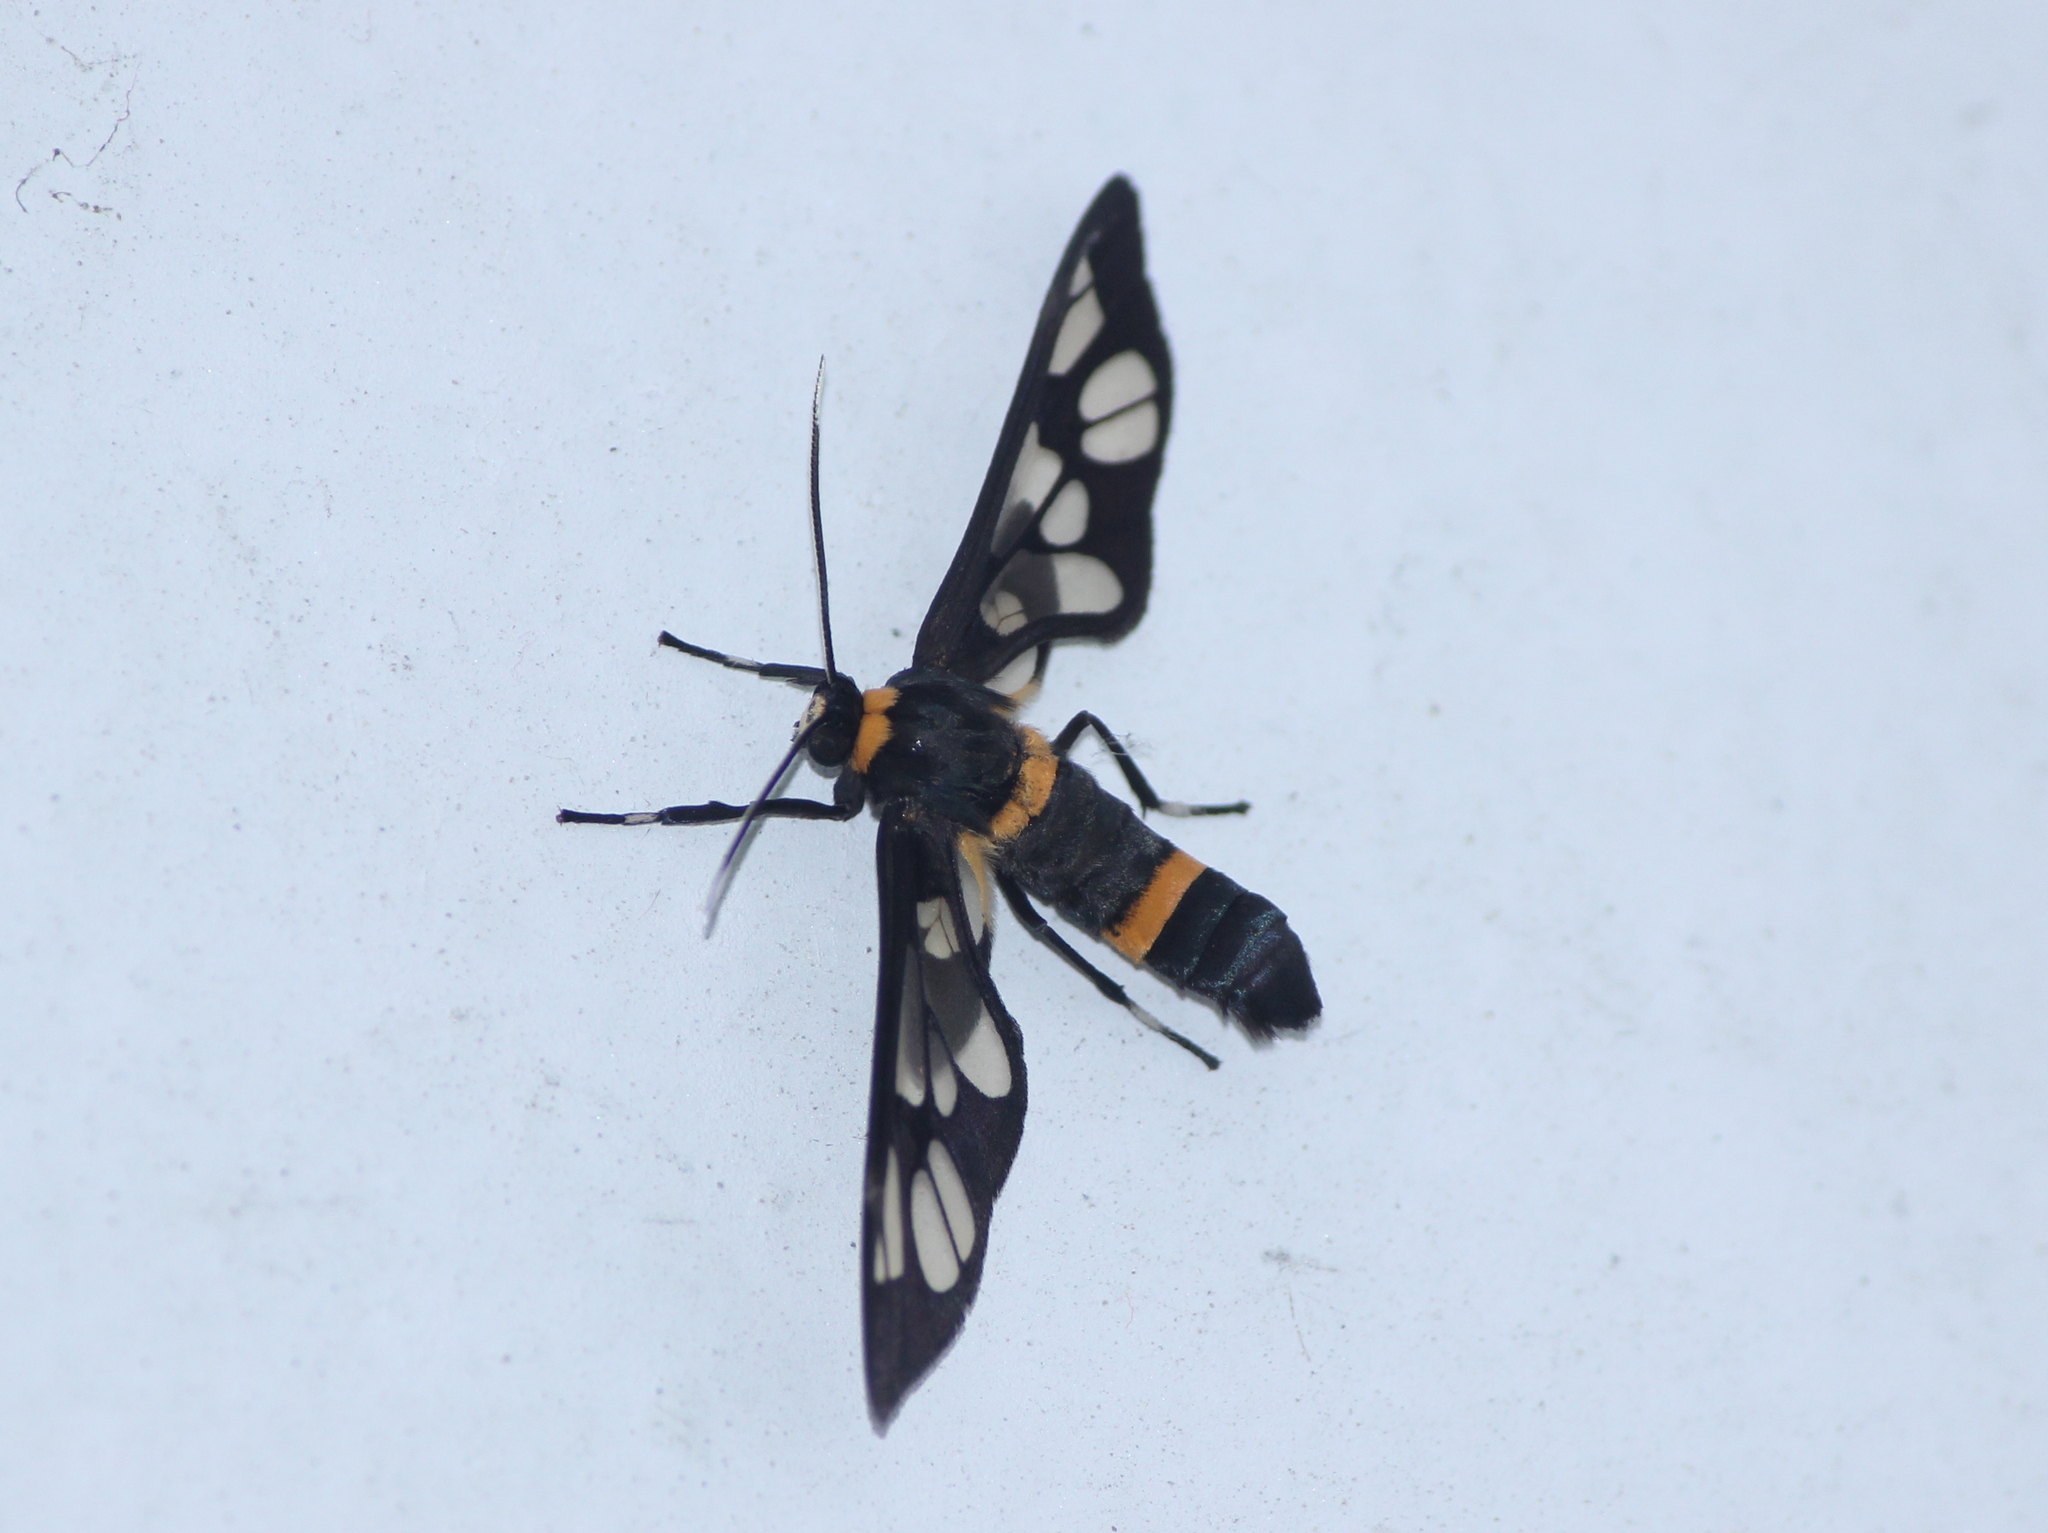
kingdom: Animalia
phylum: Arthropoda
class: Insecta
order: Lepidoptera
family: Erebidae
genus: Syntomoides
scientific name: Syntomoides imaon
